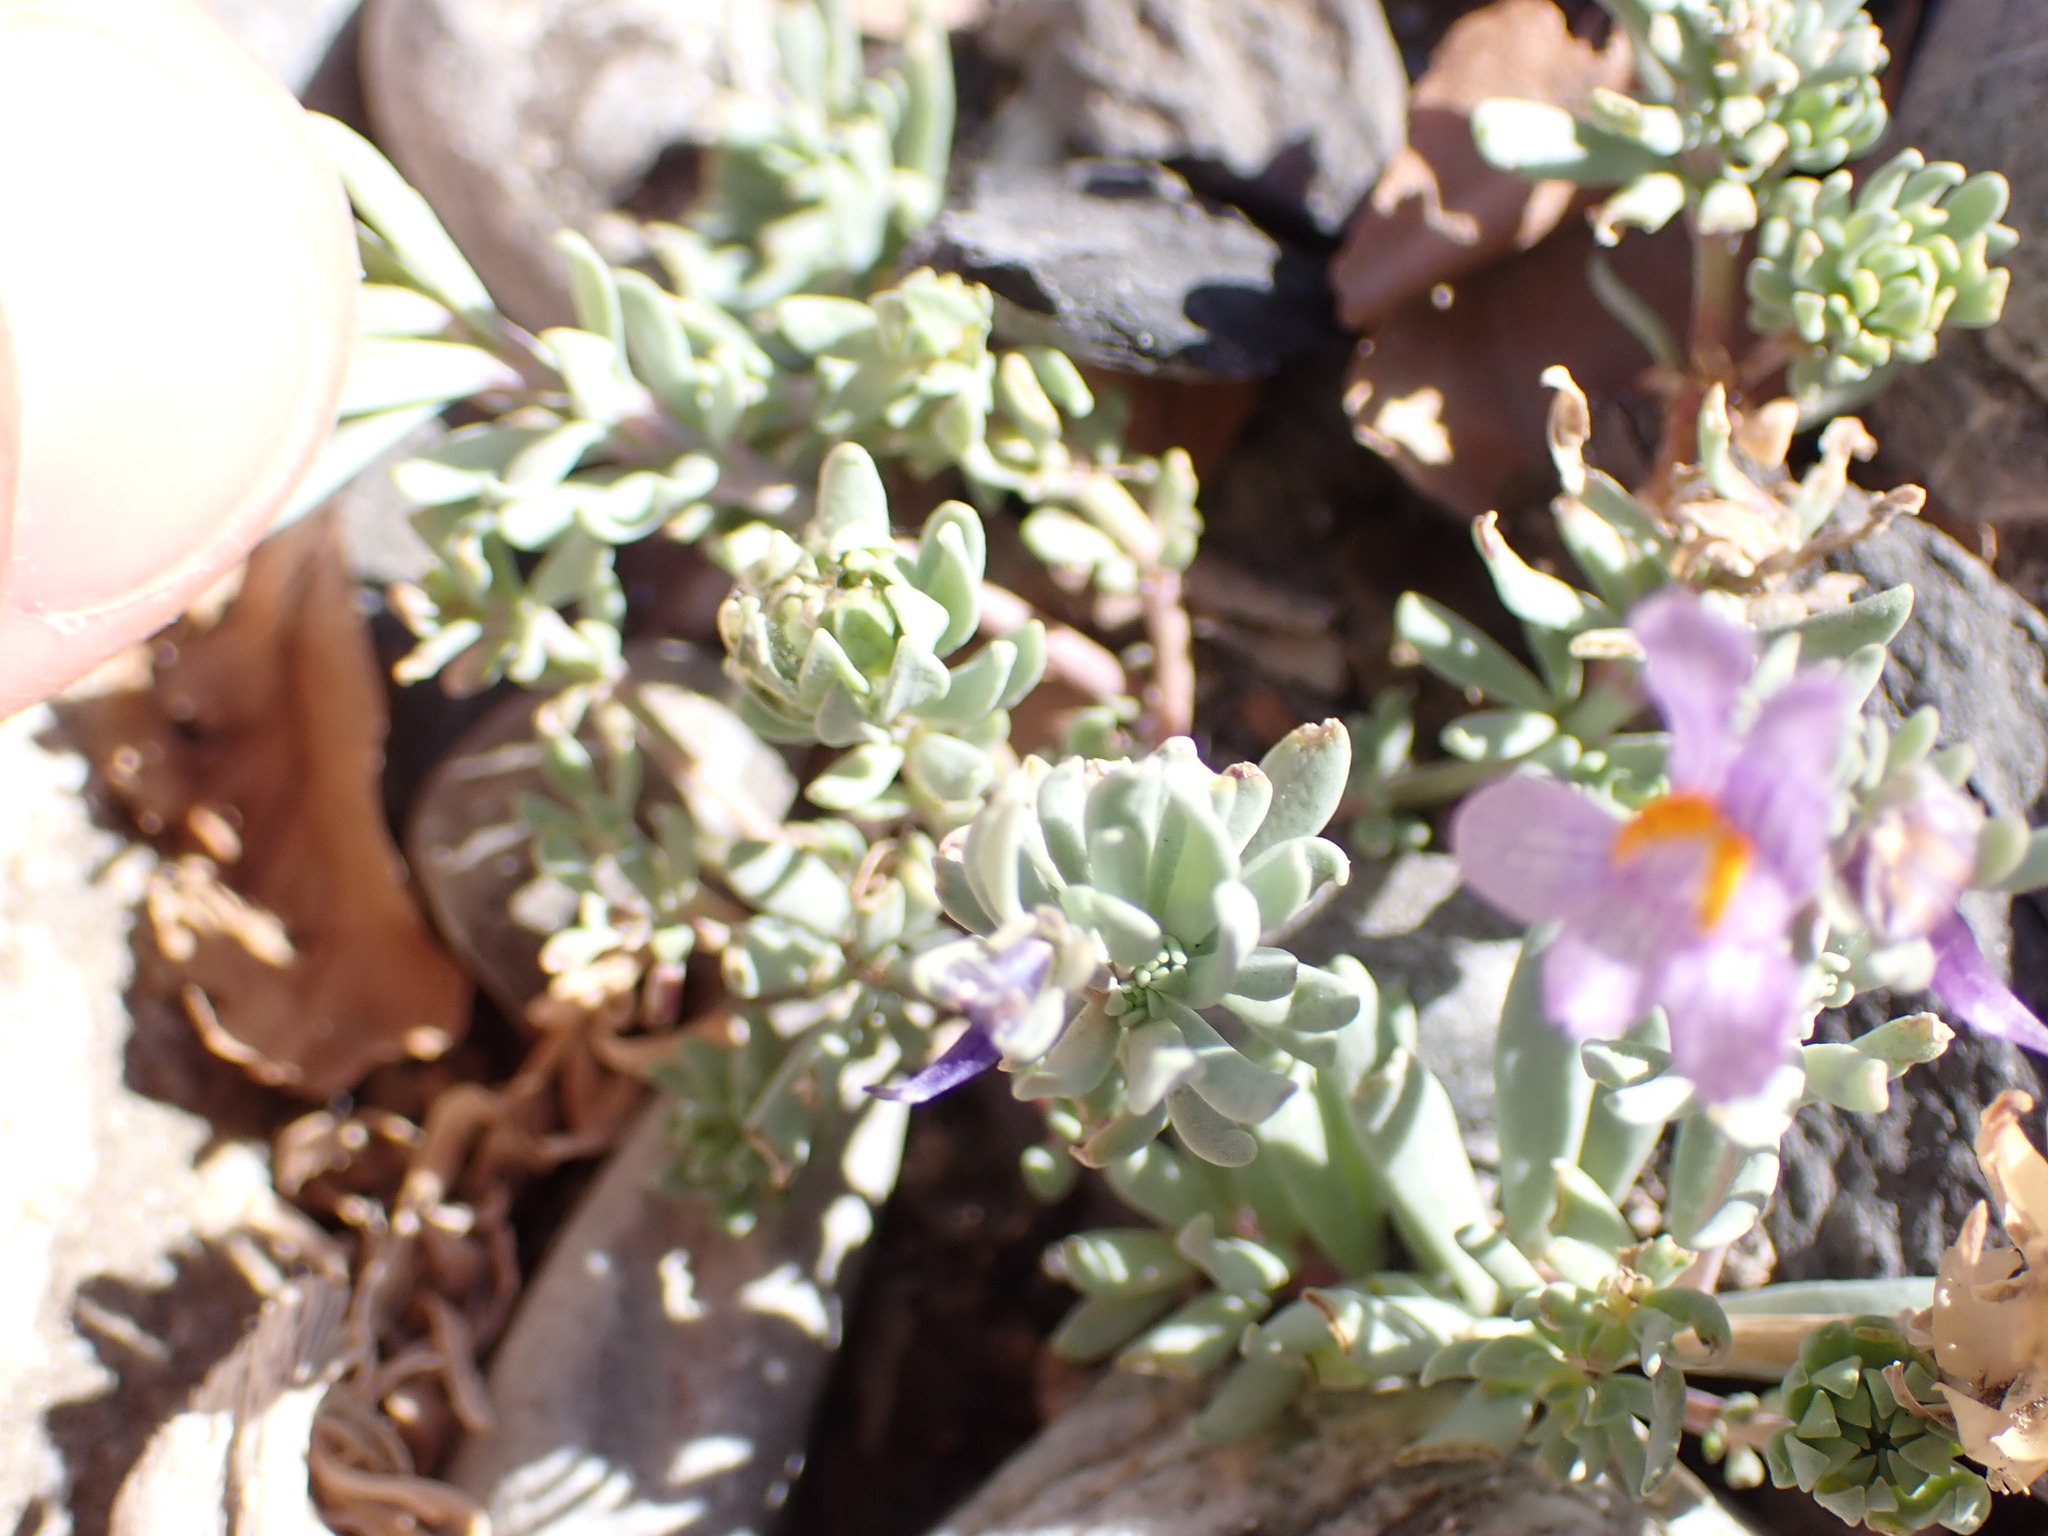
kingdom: Plantae
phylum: Tracheophyta
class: Magnoliopsida
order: Lamiales
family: Plantaginaceae
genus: Linaria
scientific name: Linaria alpina
